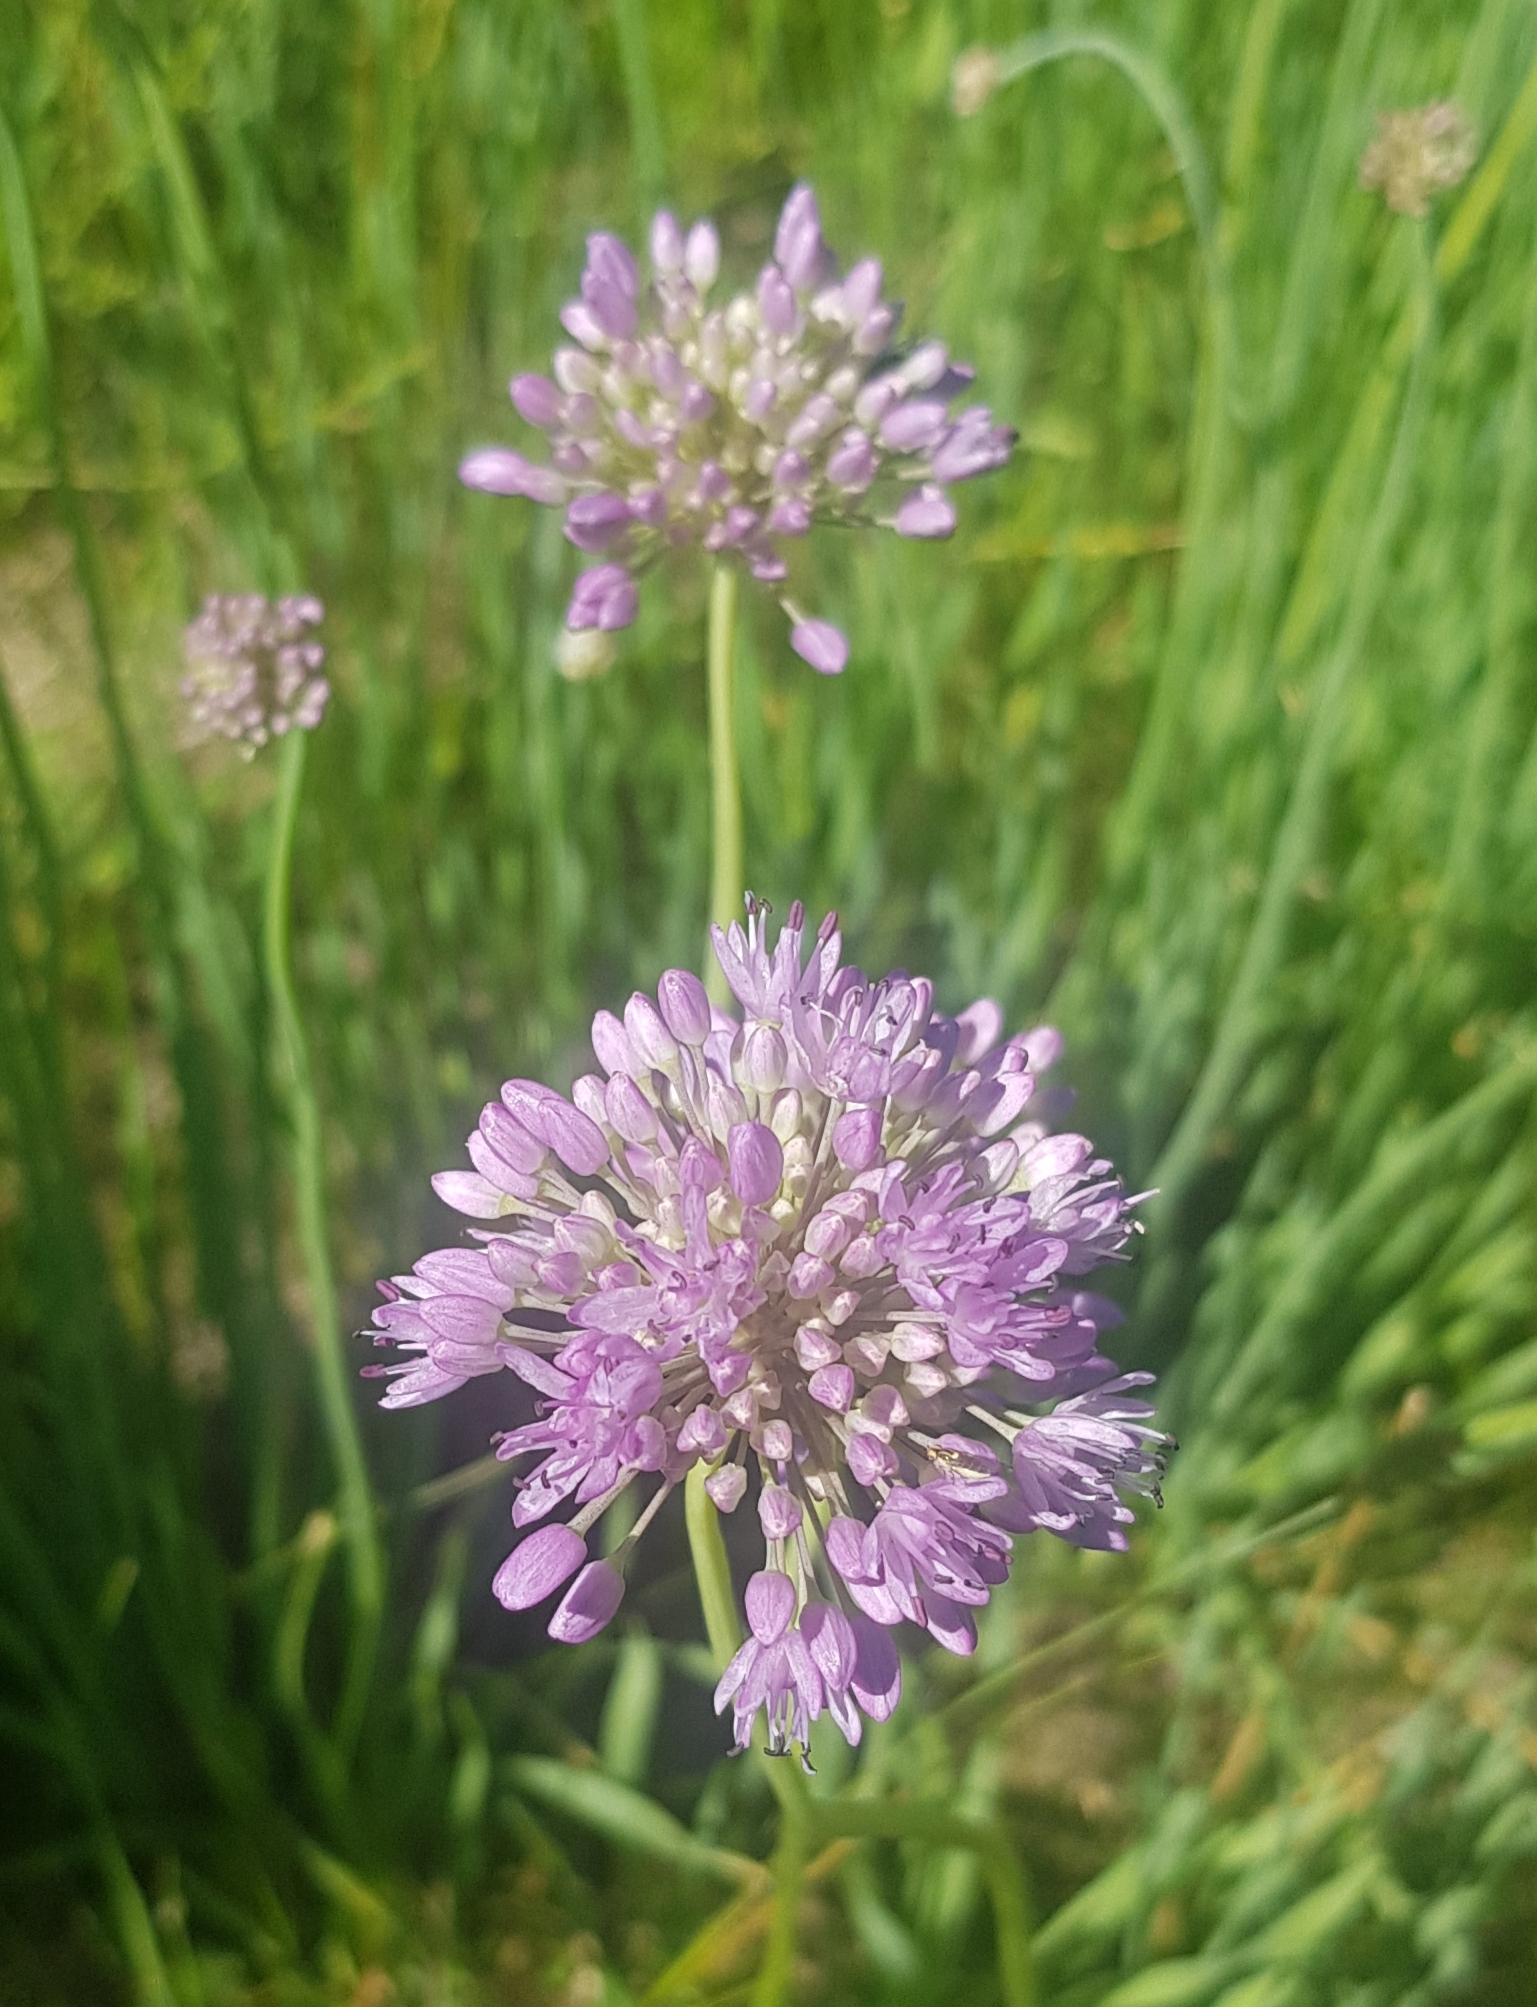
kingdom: Plantae
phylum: Tracheophyta
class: Liliopsida
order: Asparagales
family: Amaryllidaceae
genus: Allium
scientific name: Allium senescens
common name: German garlic
